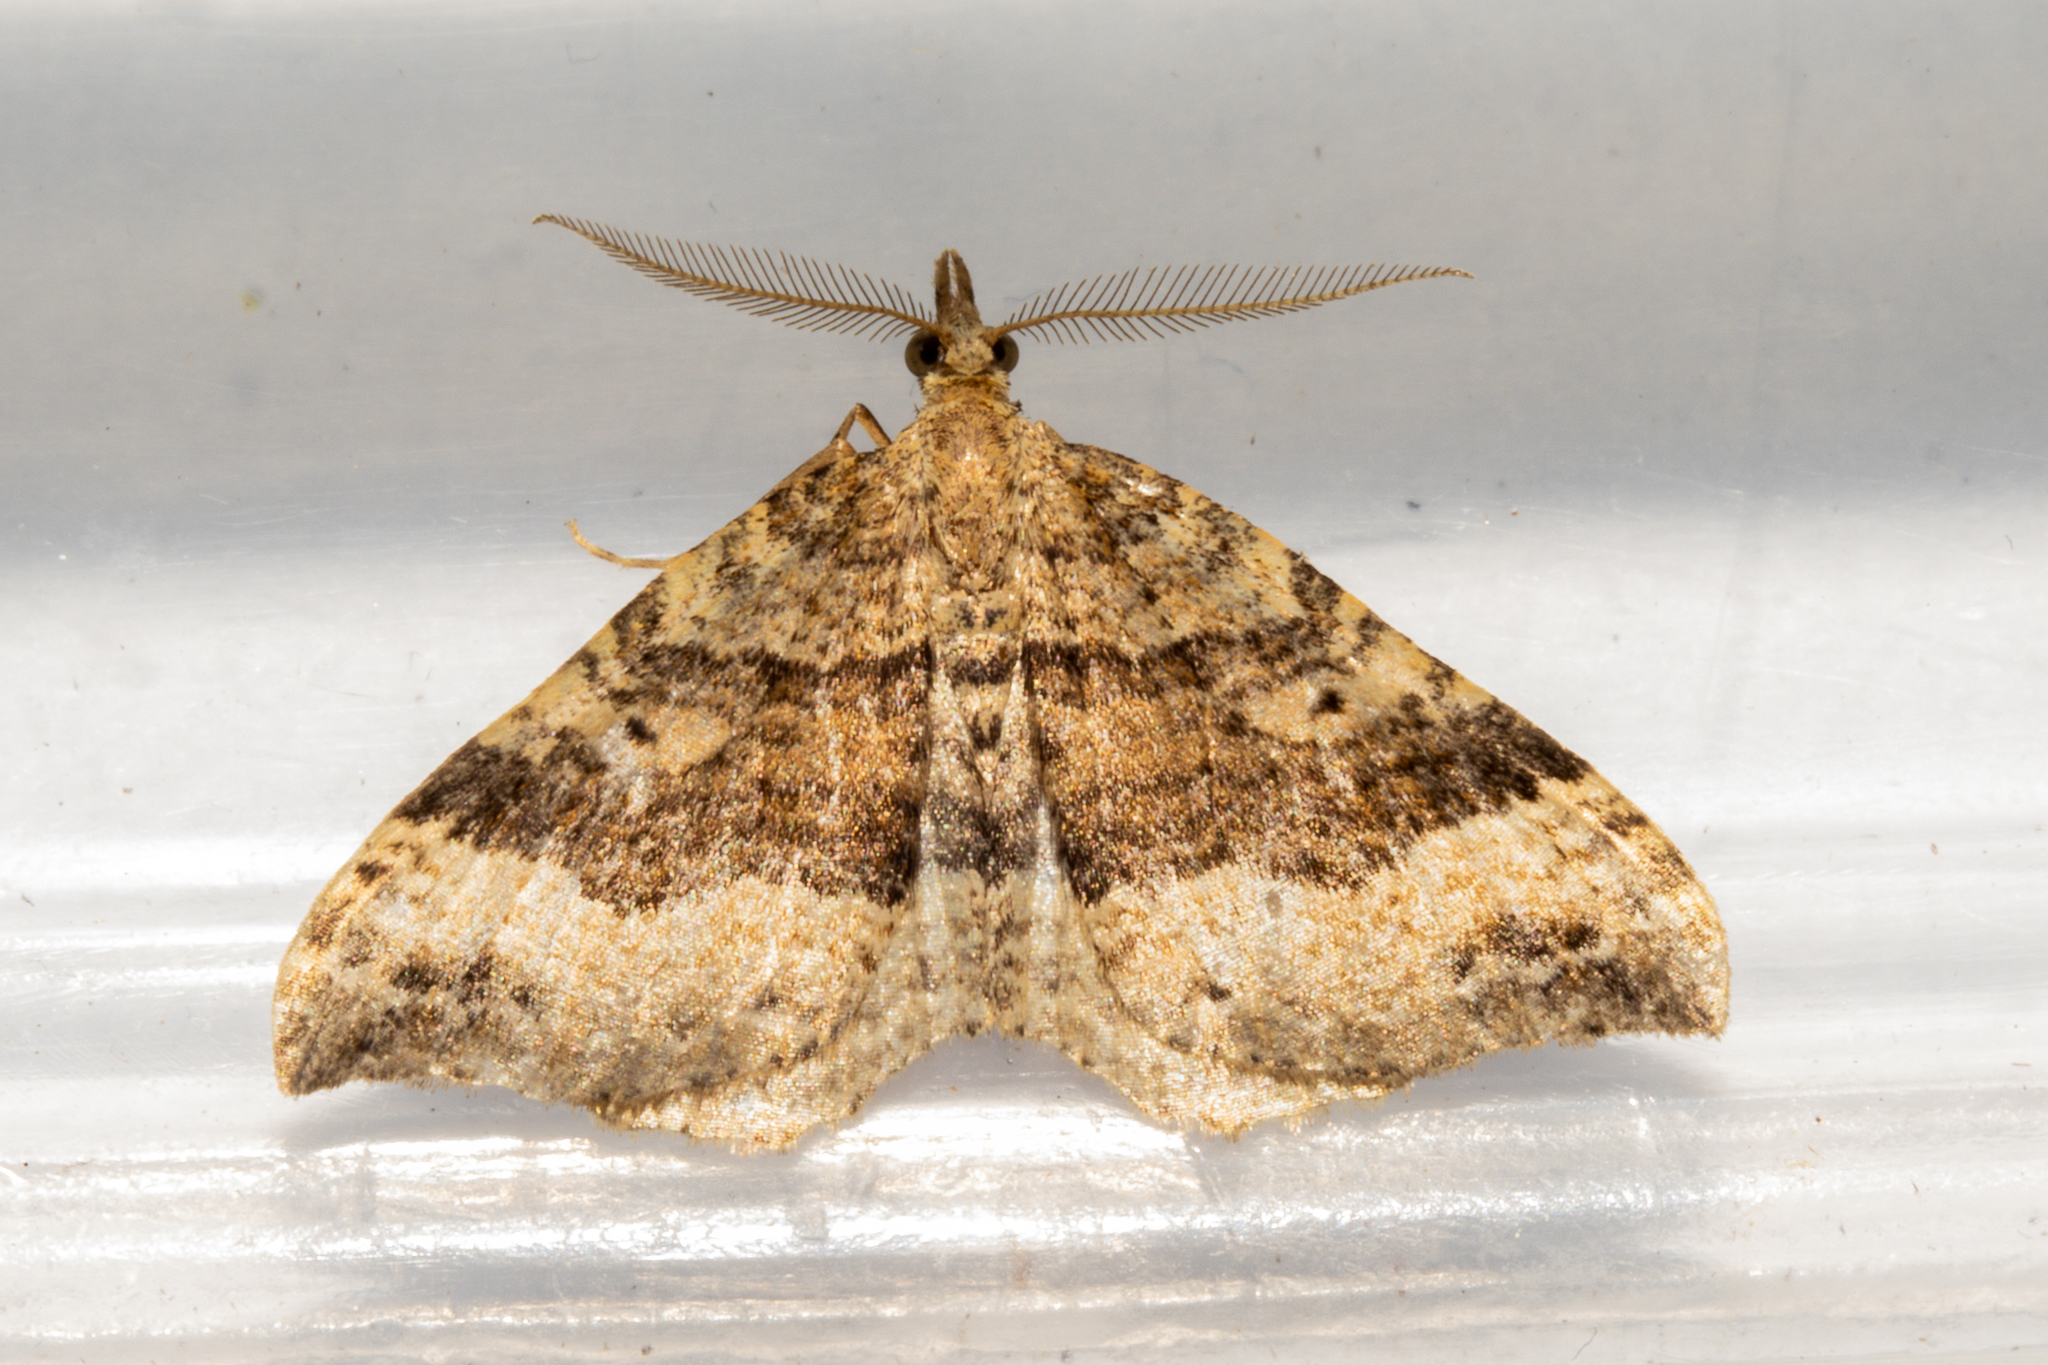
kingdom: Animalia
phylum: Arthropoda
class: Insecta
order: Lepidoptera
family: Geometridae
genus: Homodotis
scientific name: Homodotis megaspilata
